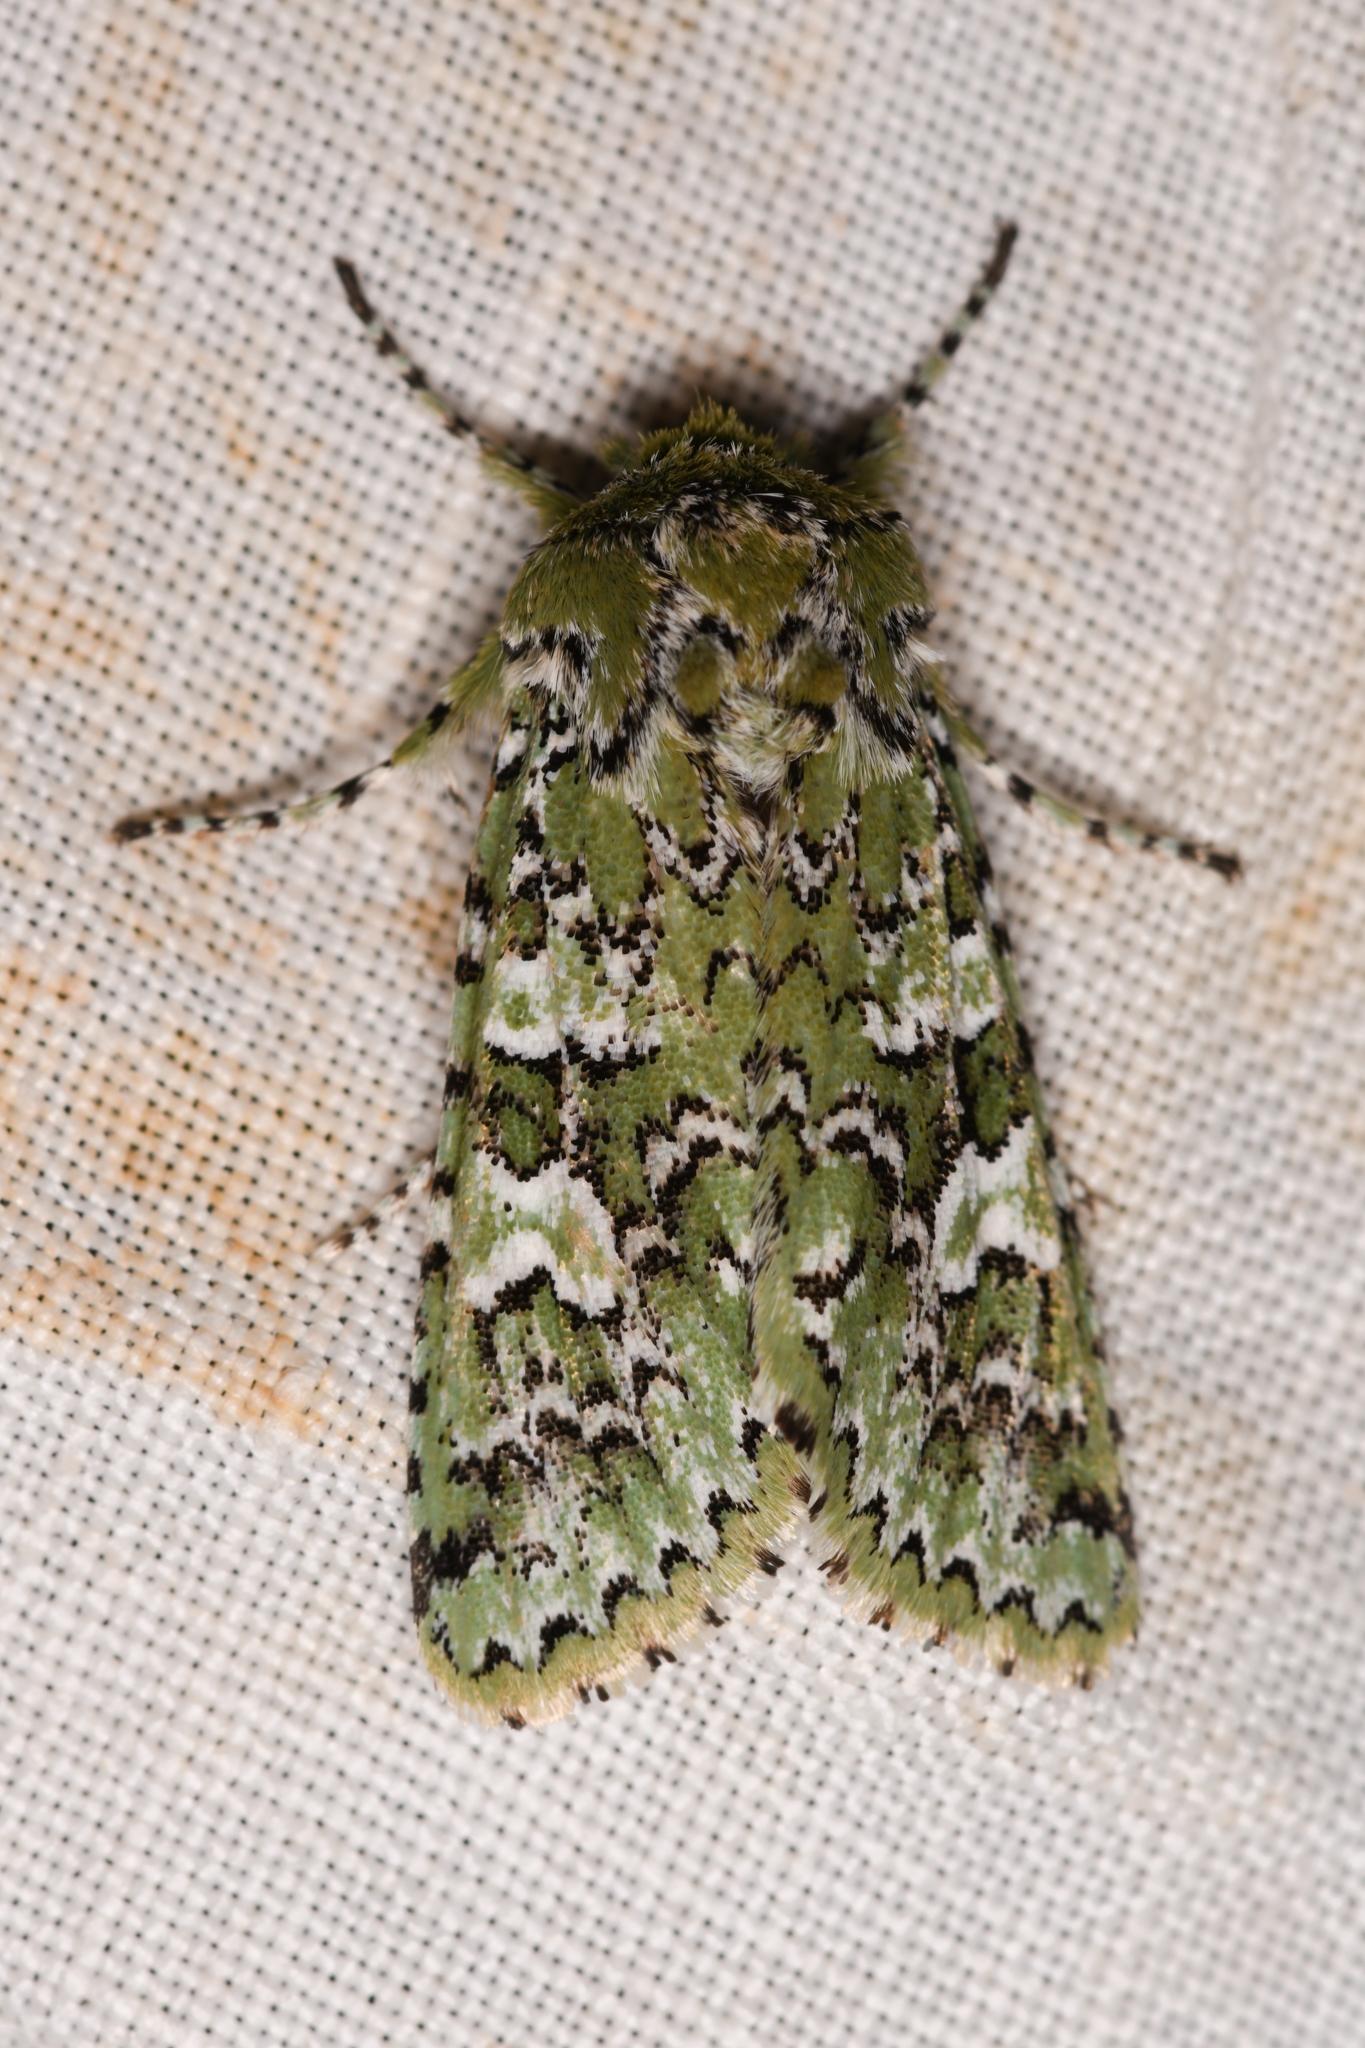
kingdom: Animalia
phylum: Arthropoda
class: Insecta
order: Lepidoptera
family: Noctuidae
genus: Feralia
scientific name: Feralia februalis
